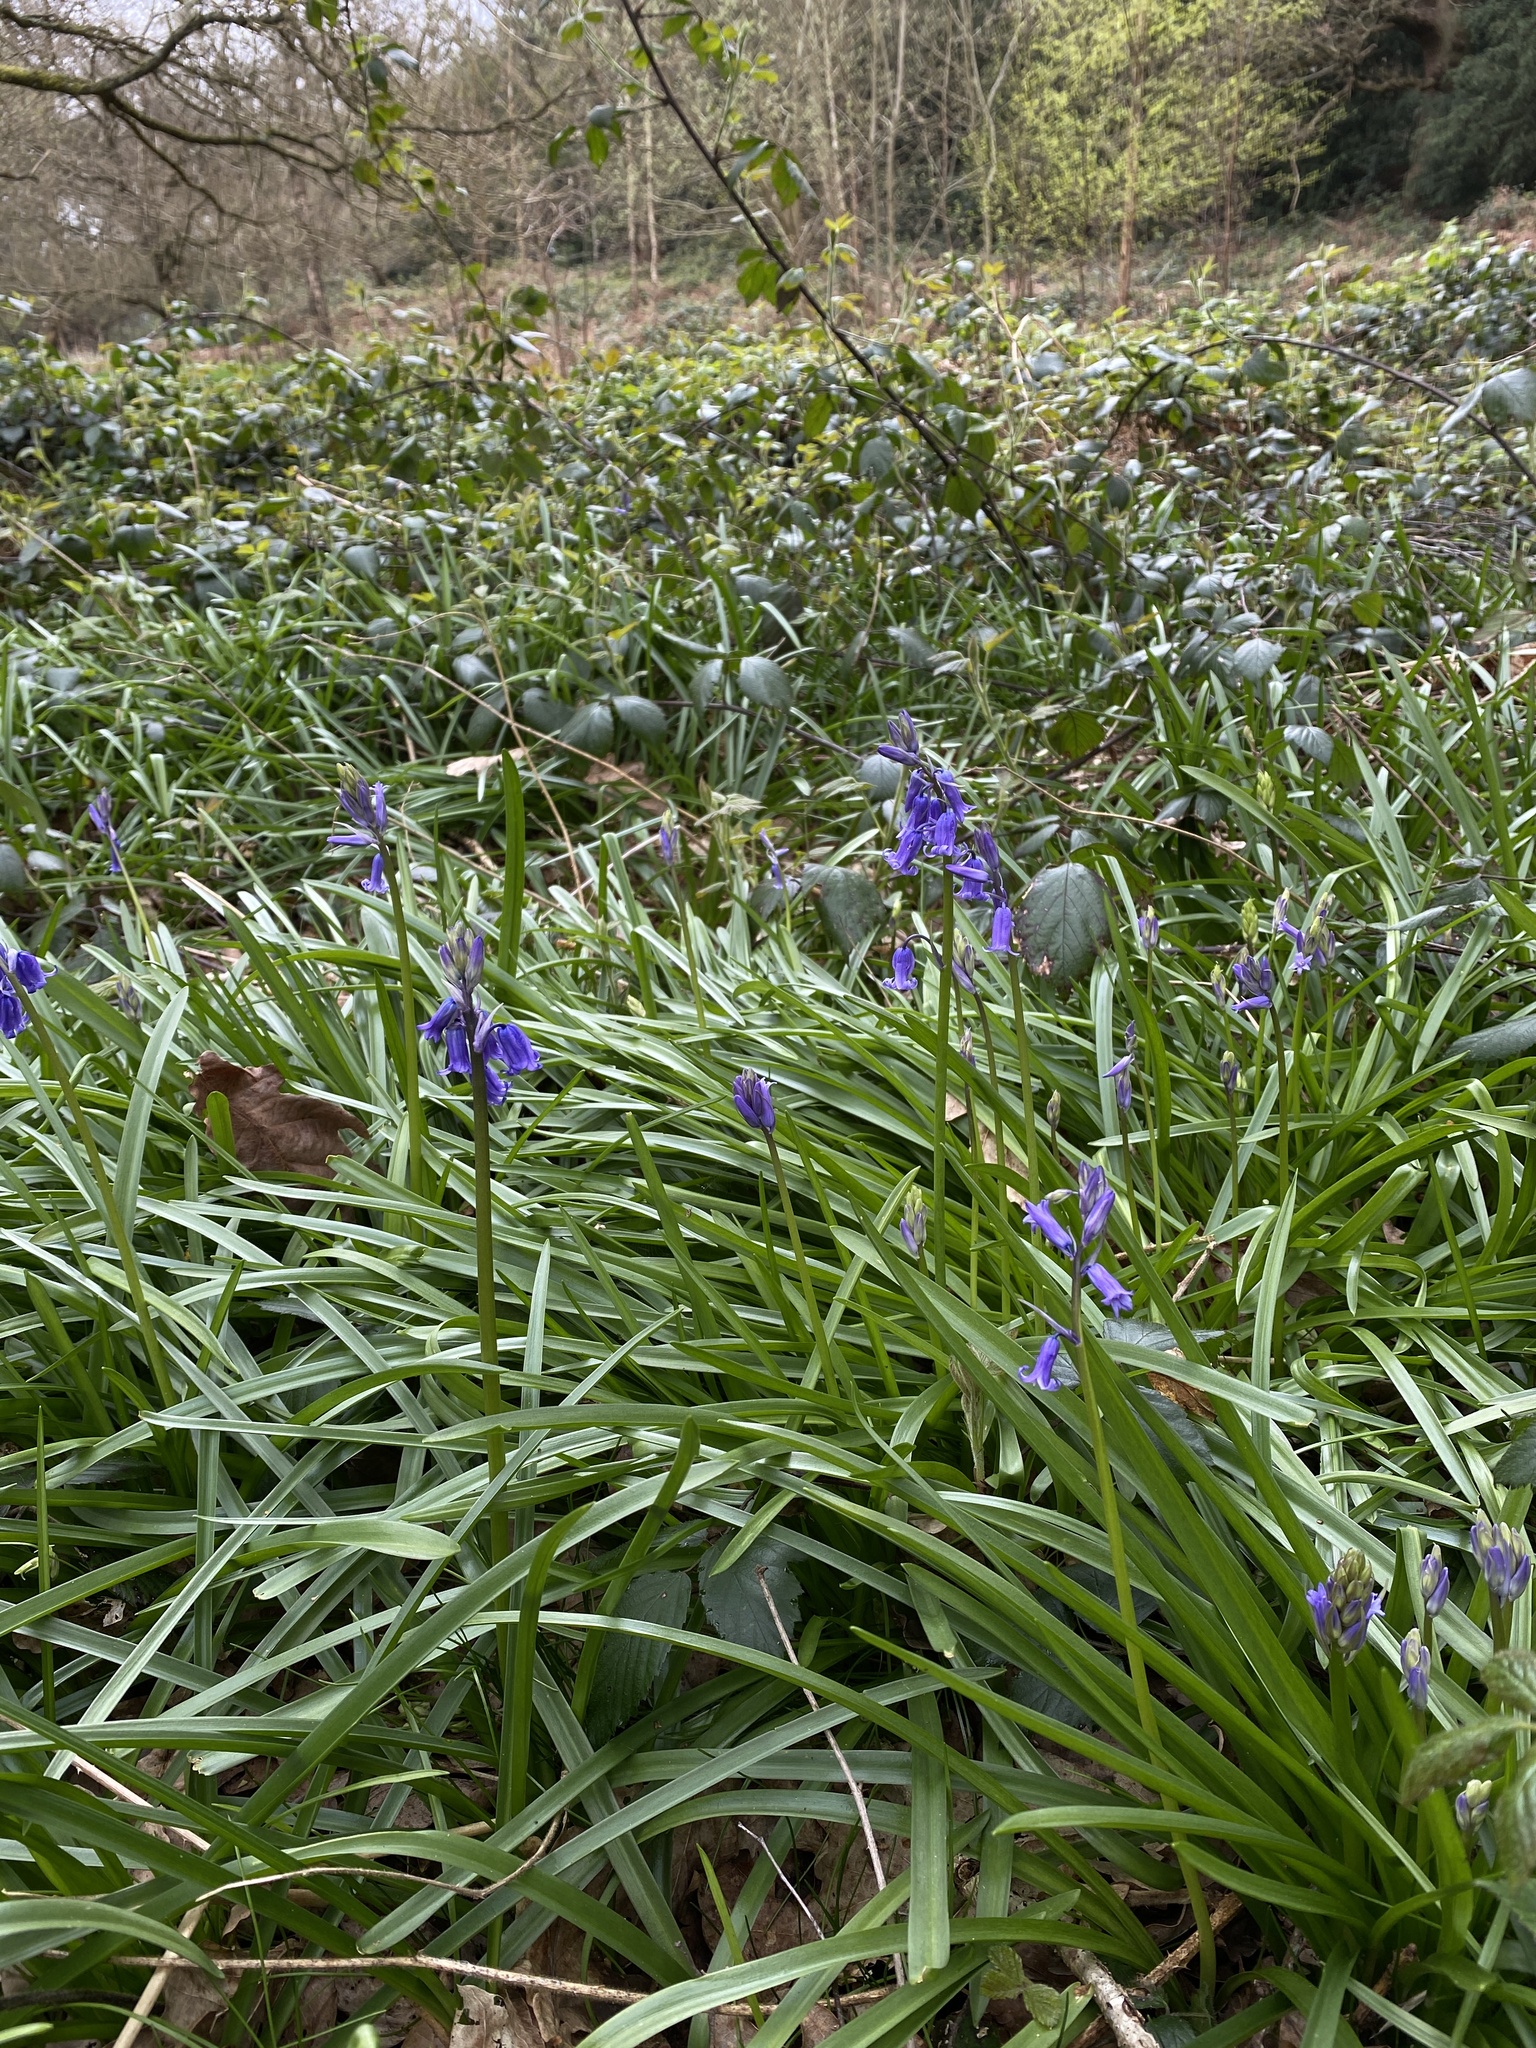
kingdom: Plantae
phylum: Tracheophyta
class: Liliopsida
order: Asparagales
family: Asparagaceae
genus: Hyacinthoides
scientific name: Hyacinthoides non-scripta
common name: Bluebell
